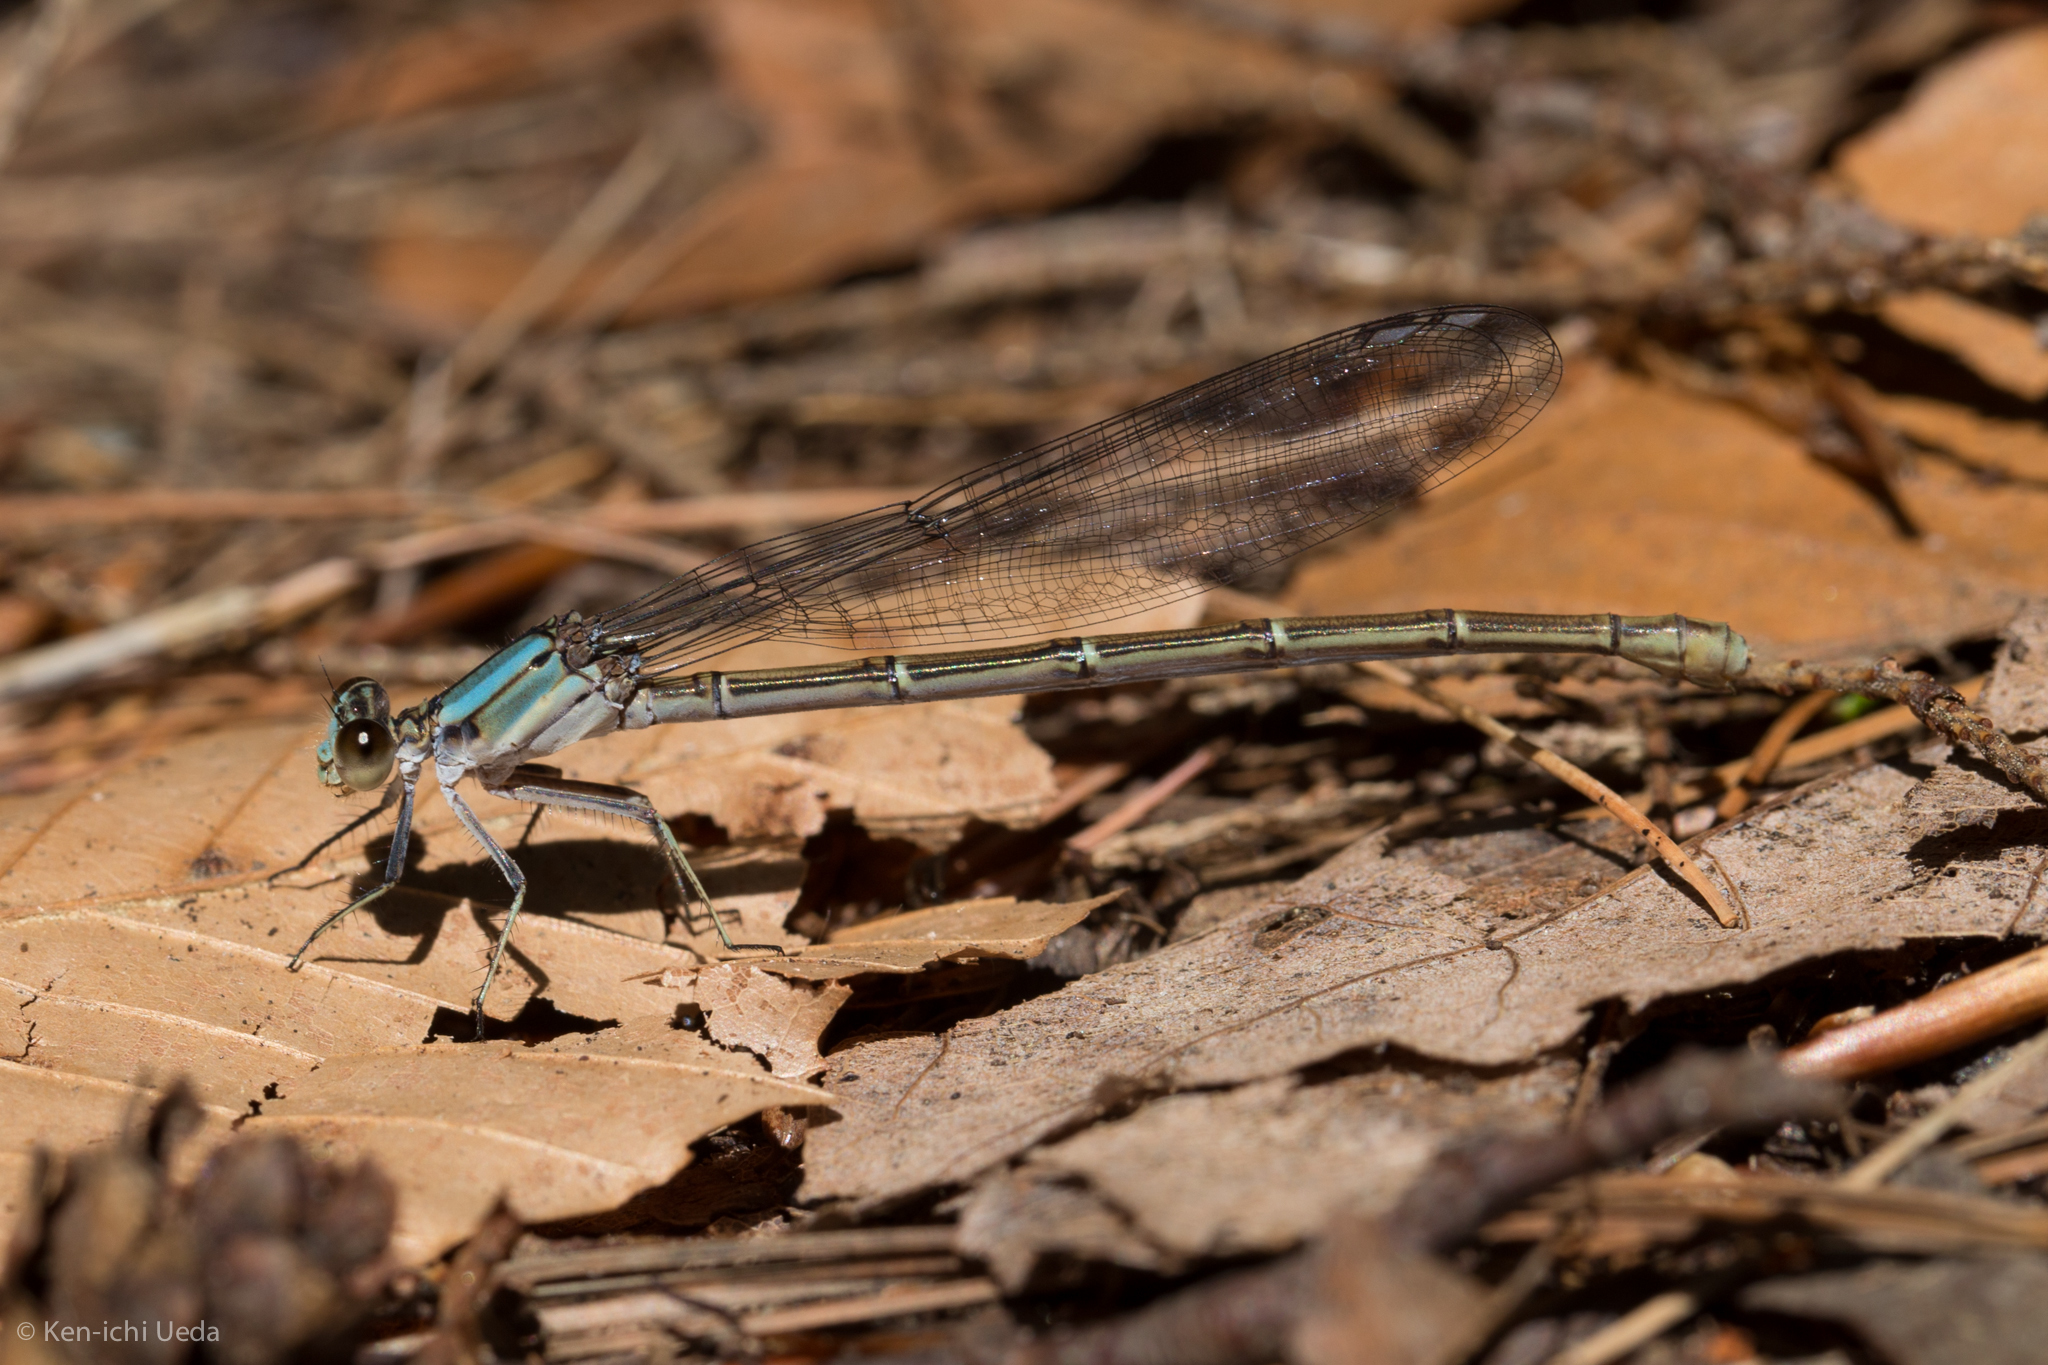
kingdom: Animalia
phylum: Arthropoda
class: Insecta
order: Odonata
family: Coenagrionidae
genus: Argia
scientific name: Argia moesta
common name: Powdered dancer
